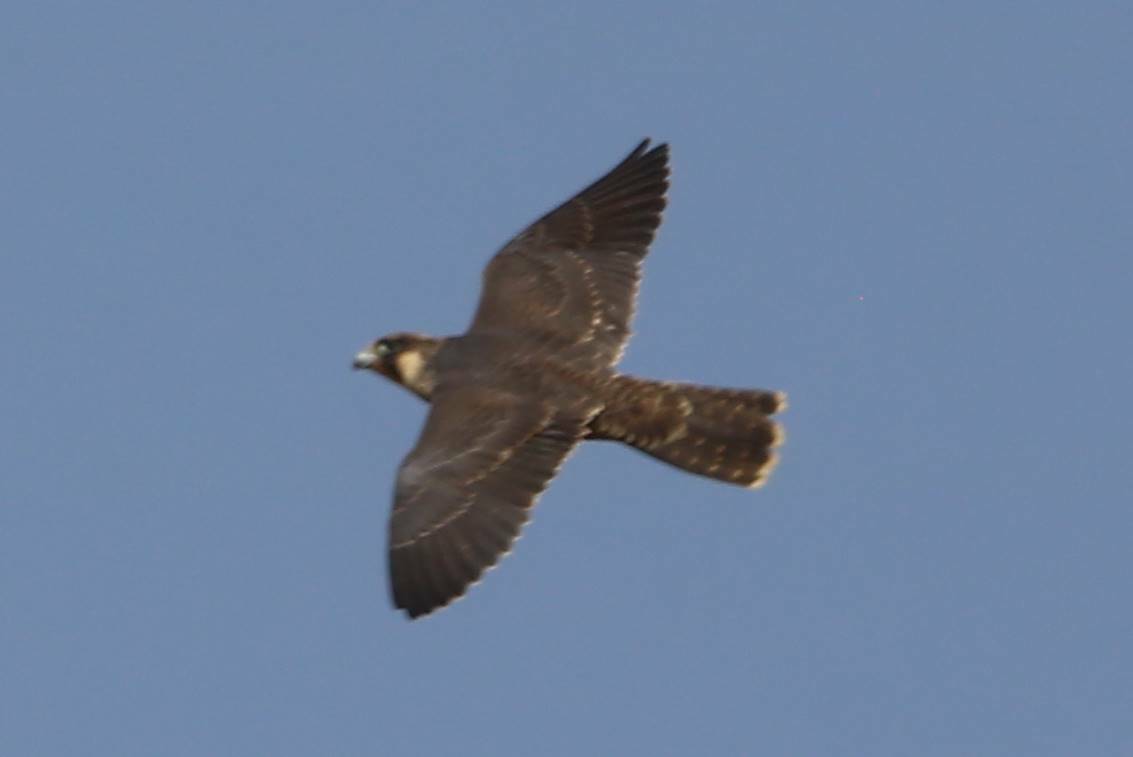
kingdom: Animalia
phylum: Chordata
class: Aves
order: Falconiformes
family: Falconidae
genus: Falco
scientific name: Falco peregrinus
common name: Peregrine falcon
